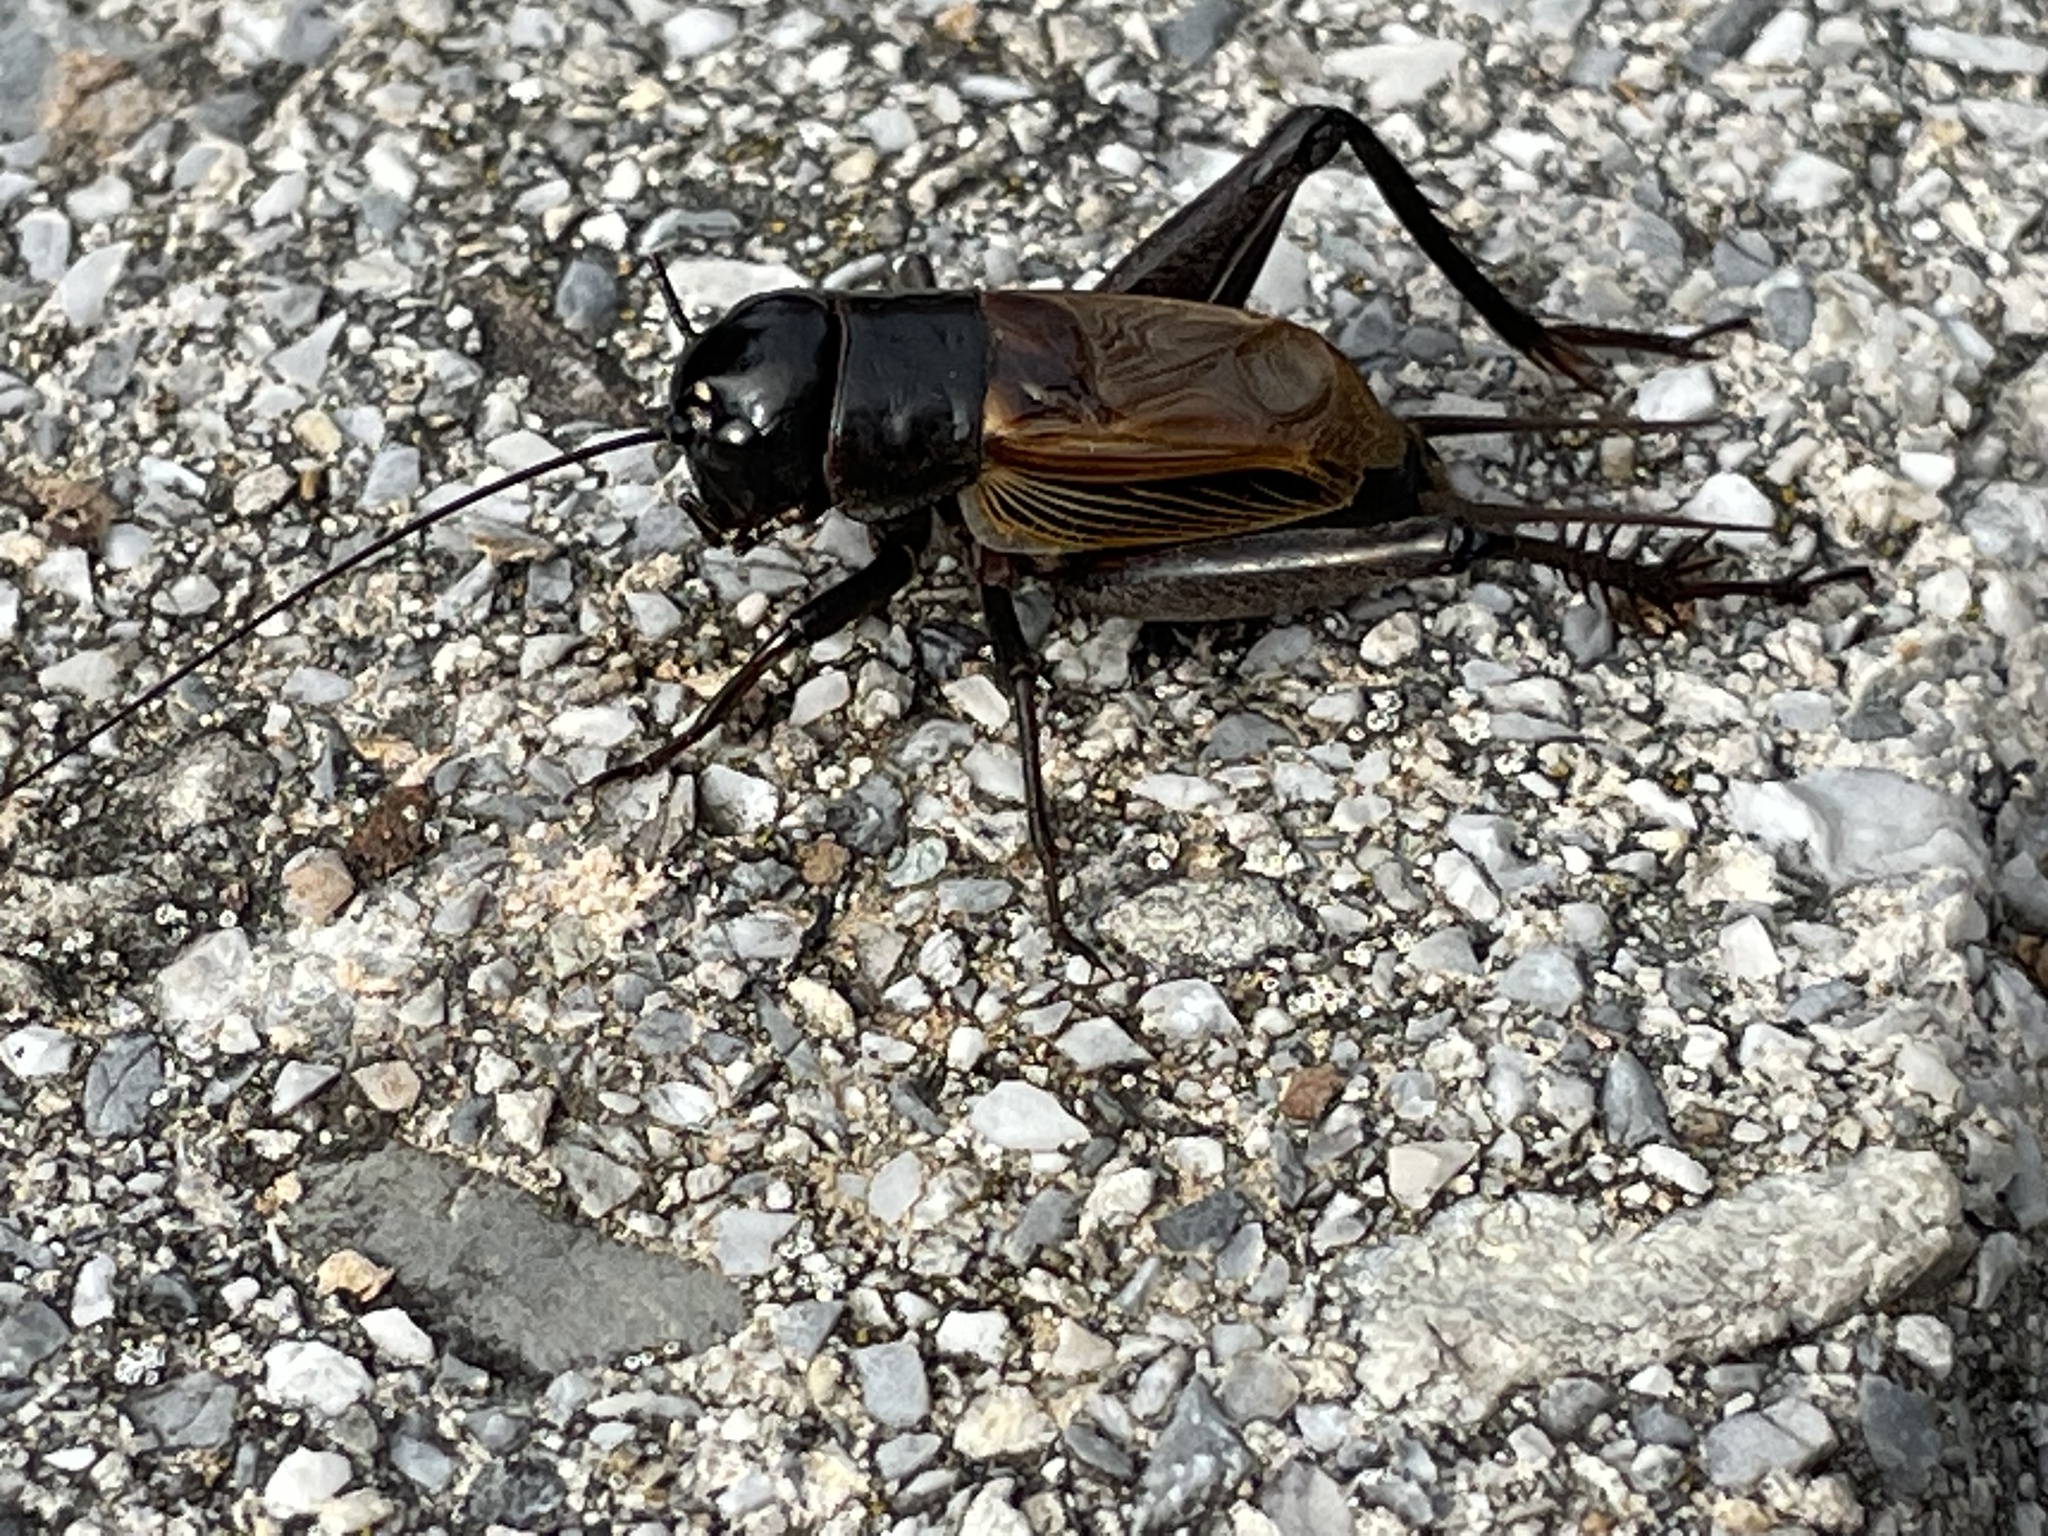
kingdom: Animalia
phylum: Arthropoda
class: Insecta
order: Orthoptera
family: Gryllidae
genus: Gryllus
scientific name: Gryllus pennsylvanicus
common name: Fall field cricket
